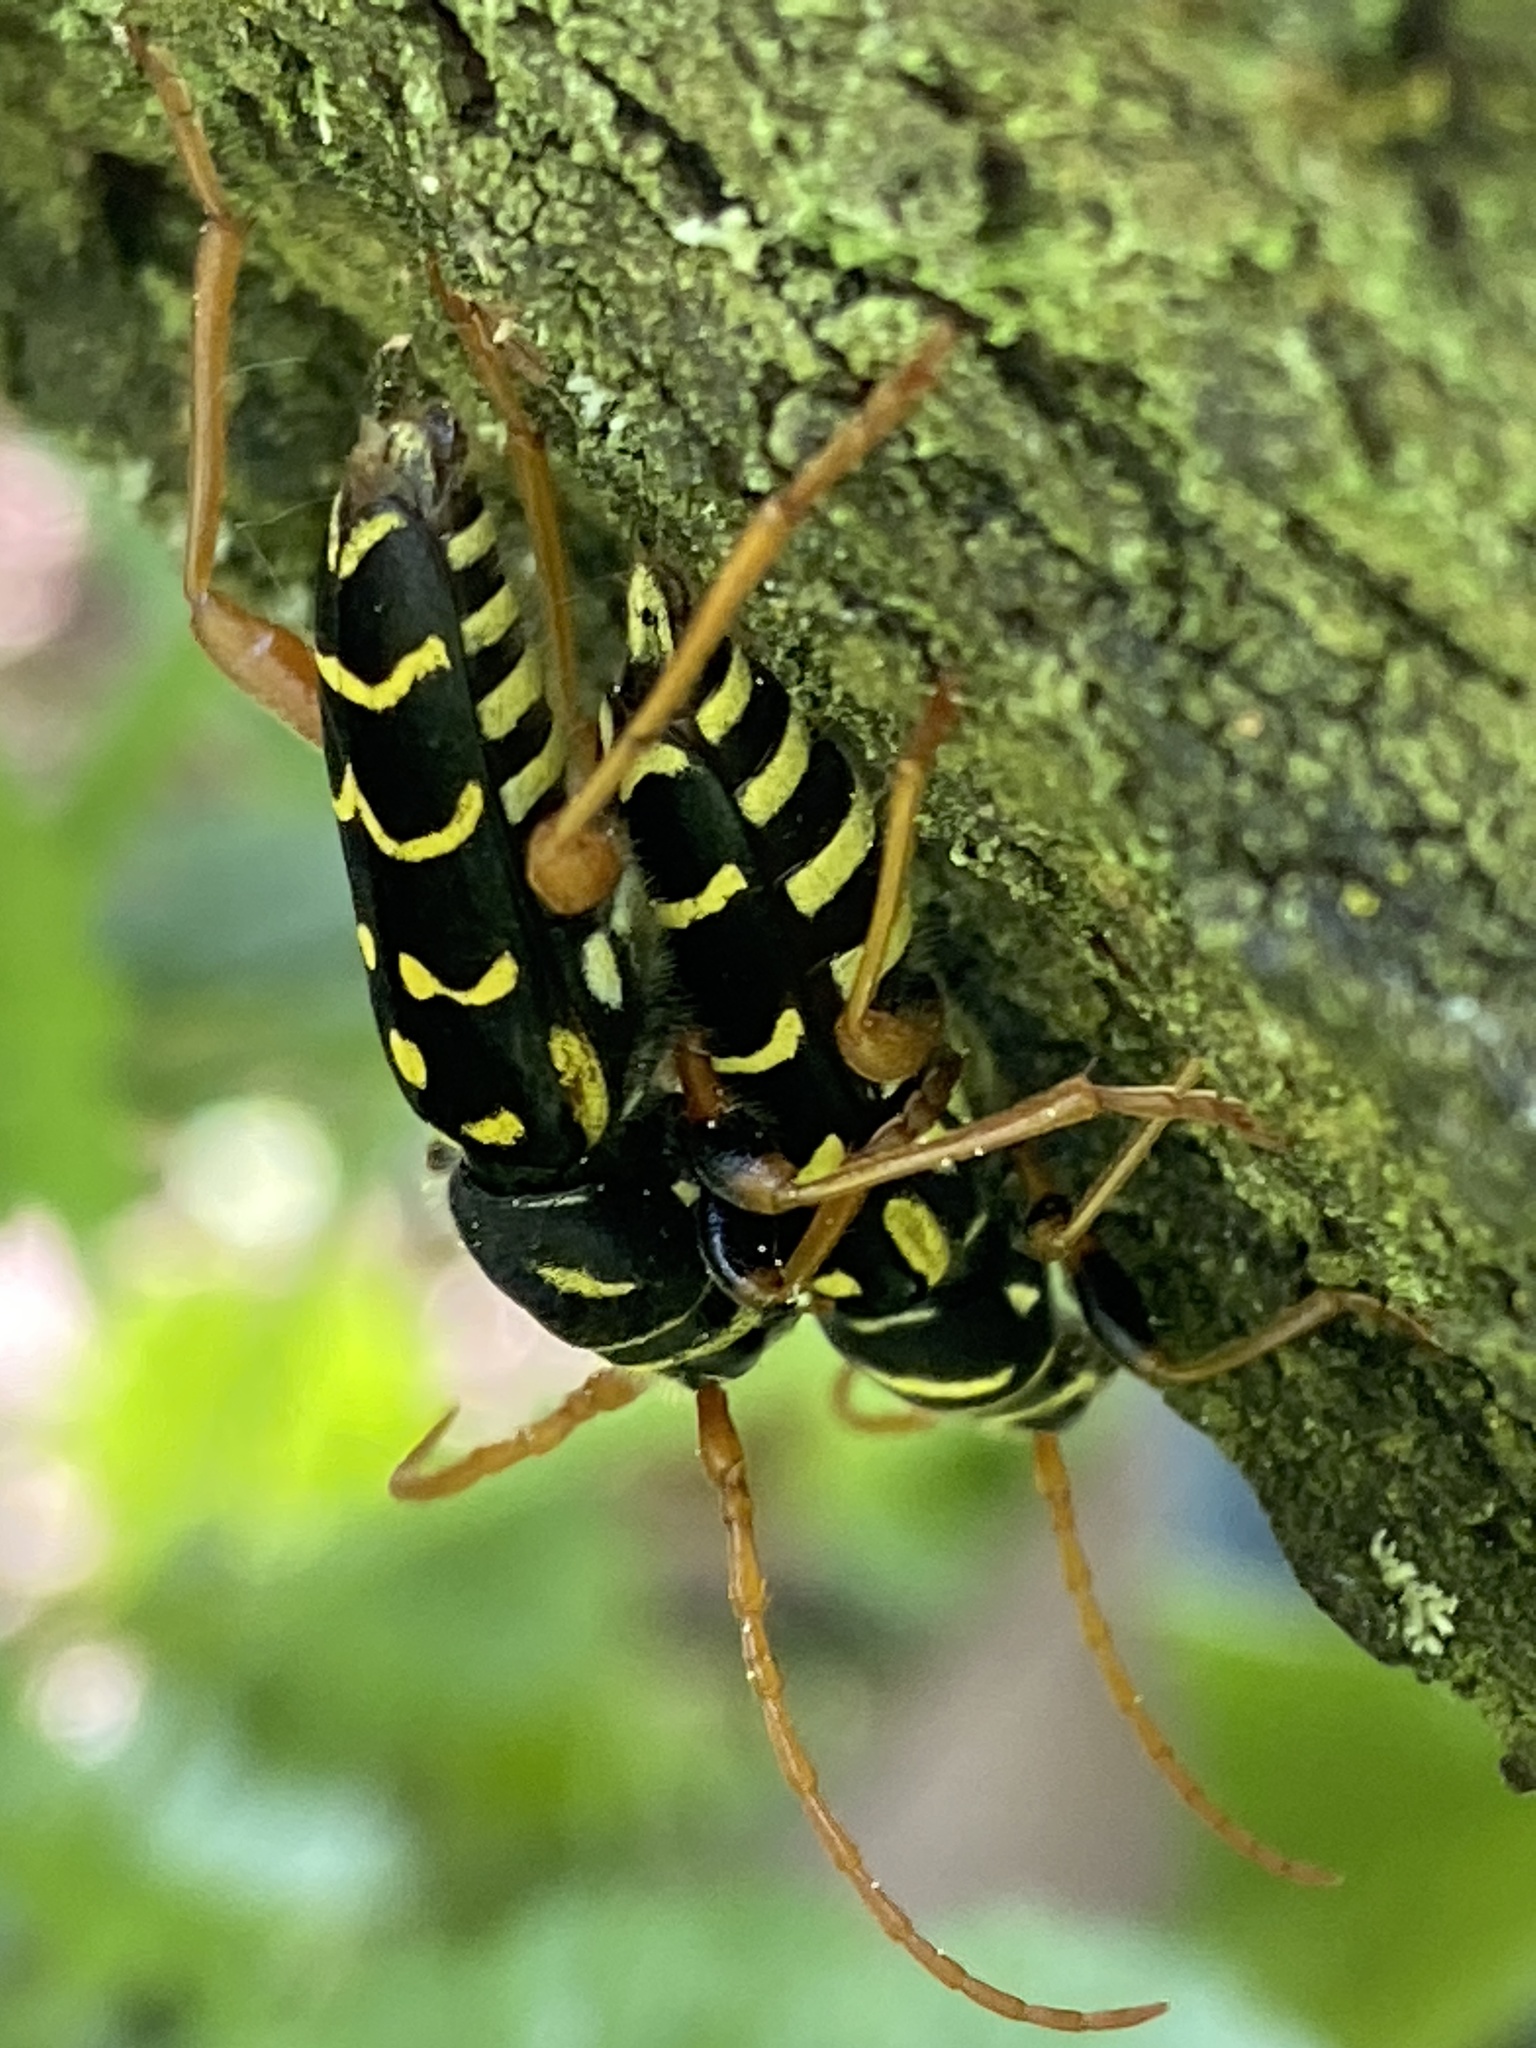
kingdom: Animalia
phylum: Arthropoda
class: Insecta
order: Coleoptera
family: Cerambycidae
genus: Plagionotus
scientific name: Plagionotus arcuatus
